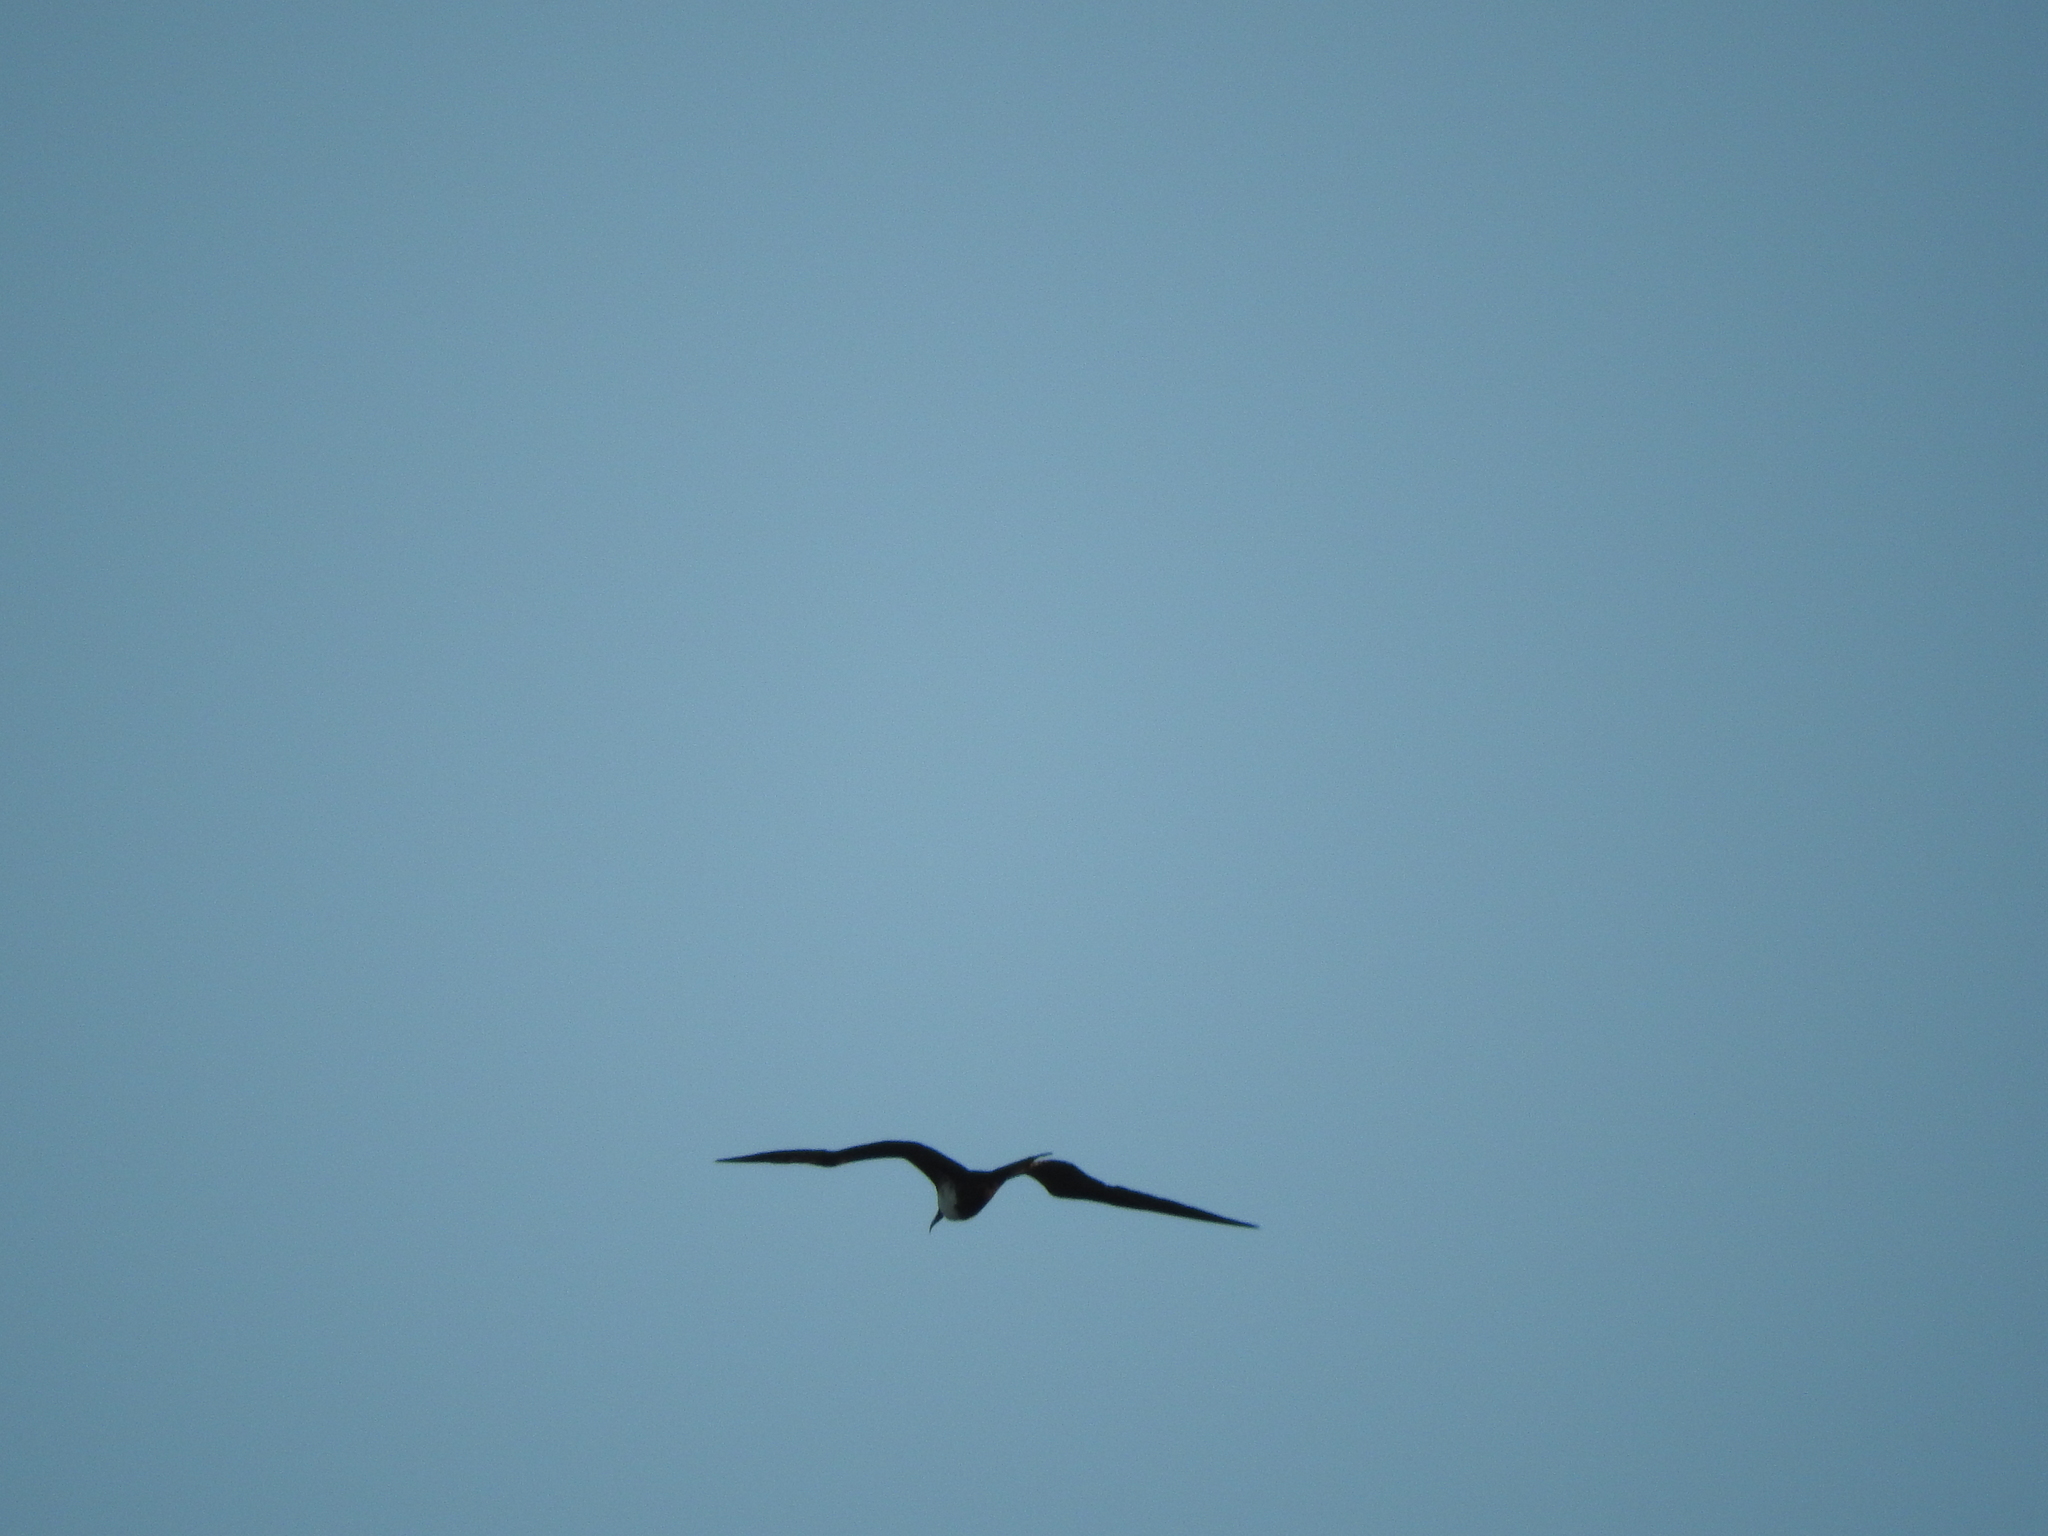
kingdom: Animalia
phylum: Chordata
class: Aves
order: Suliformes
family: Fregatidae
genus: Fregata
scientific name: Fregata magnificens
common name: Magnificent frigatebird
